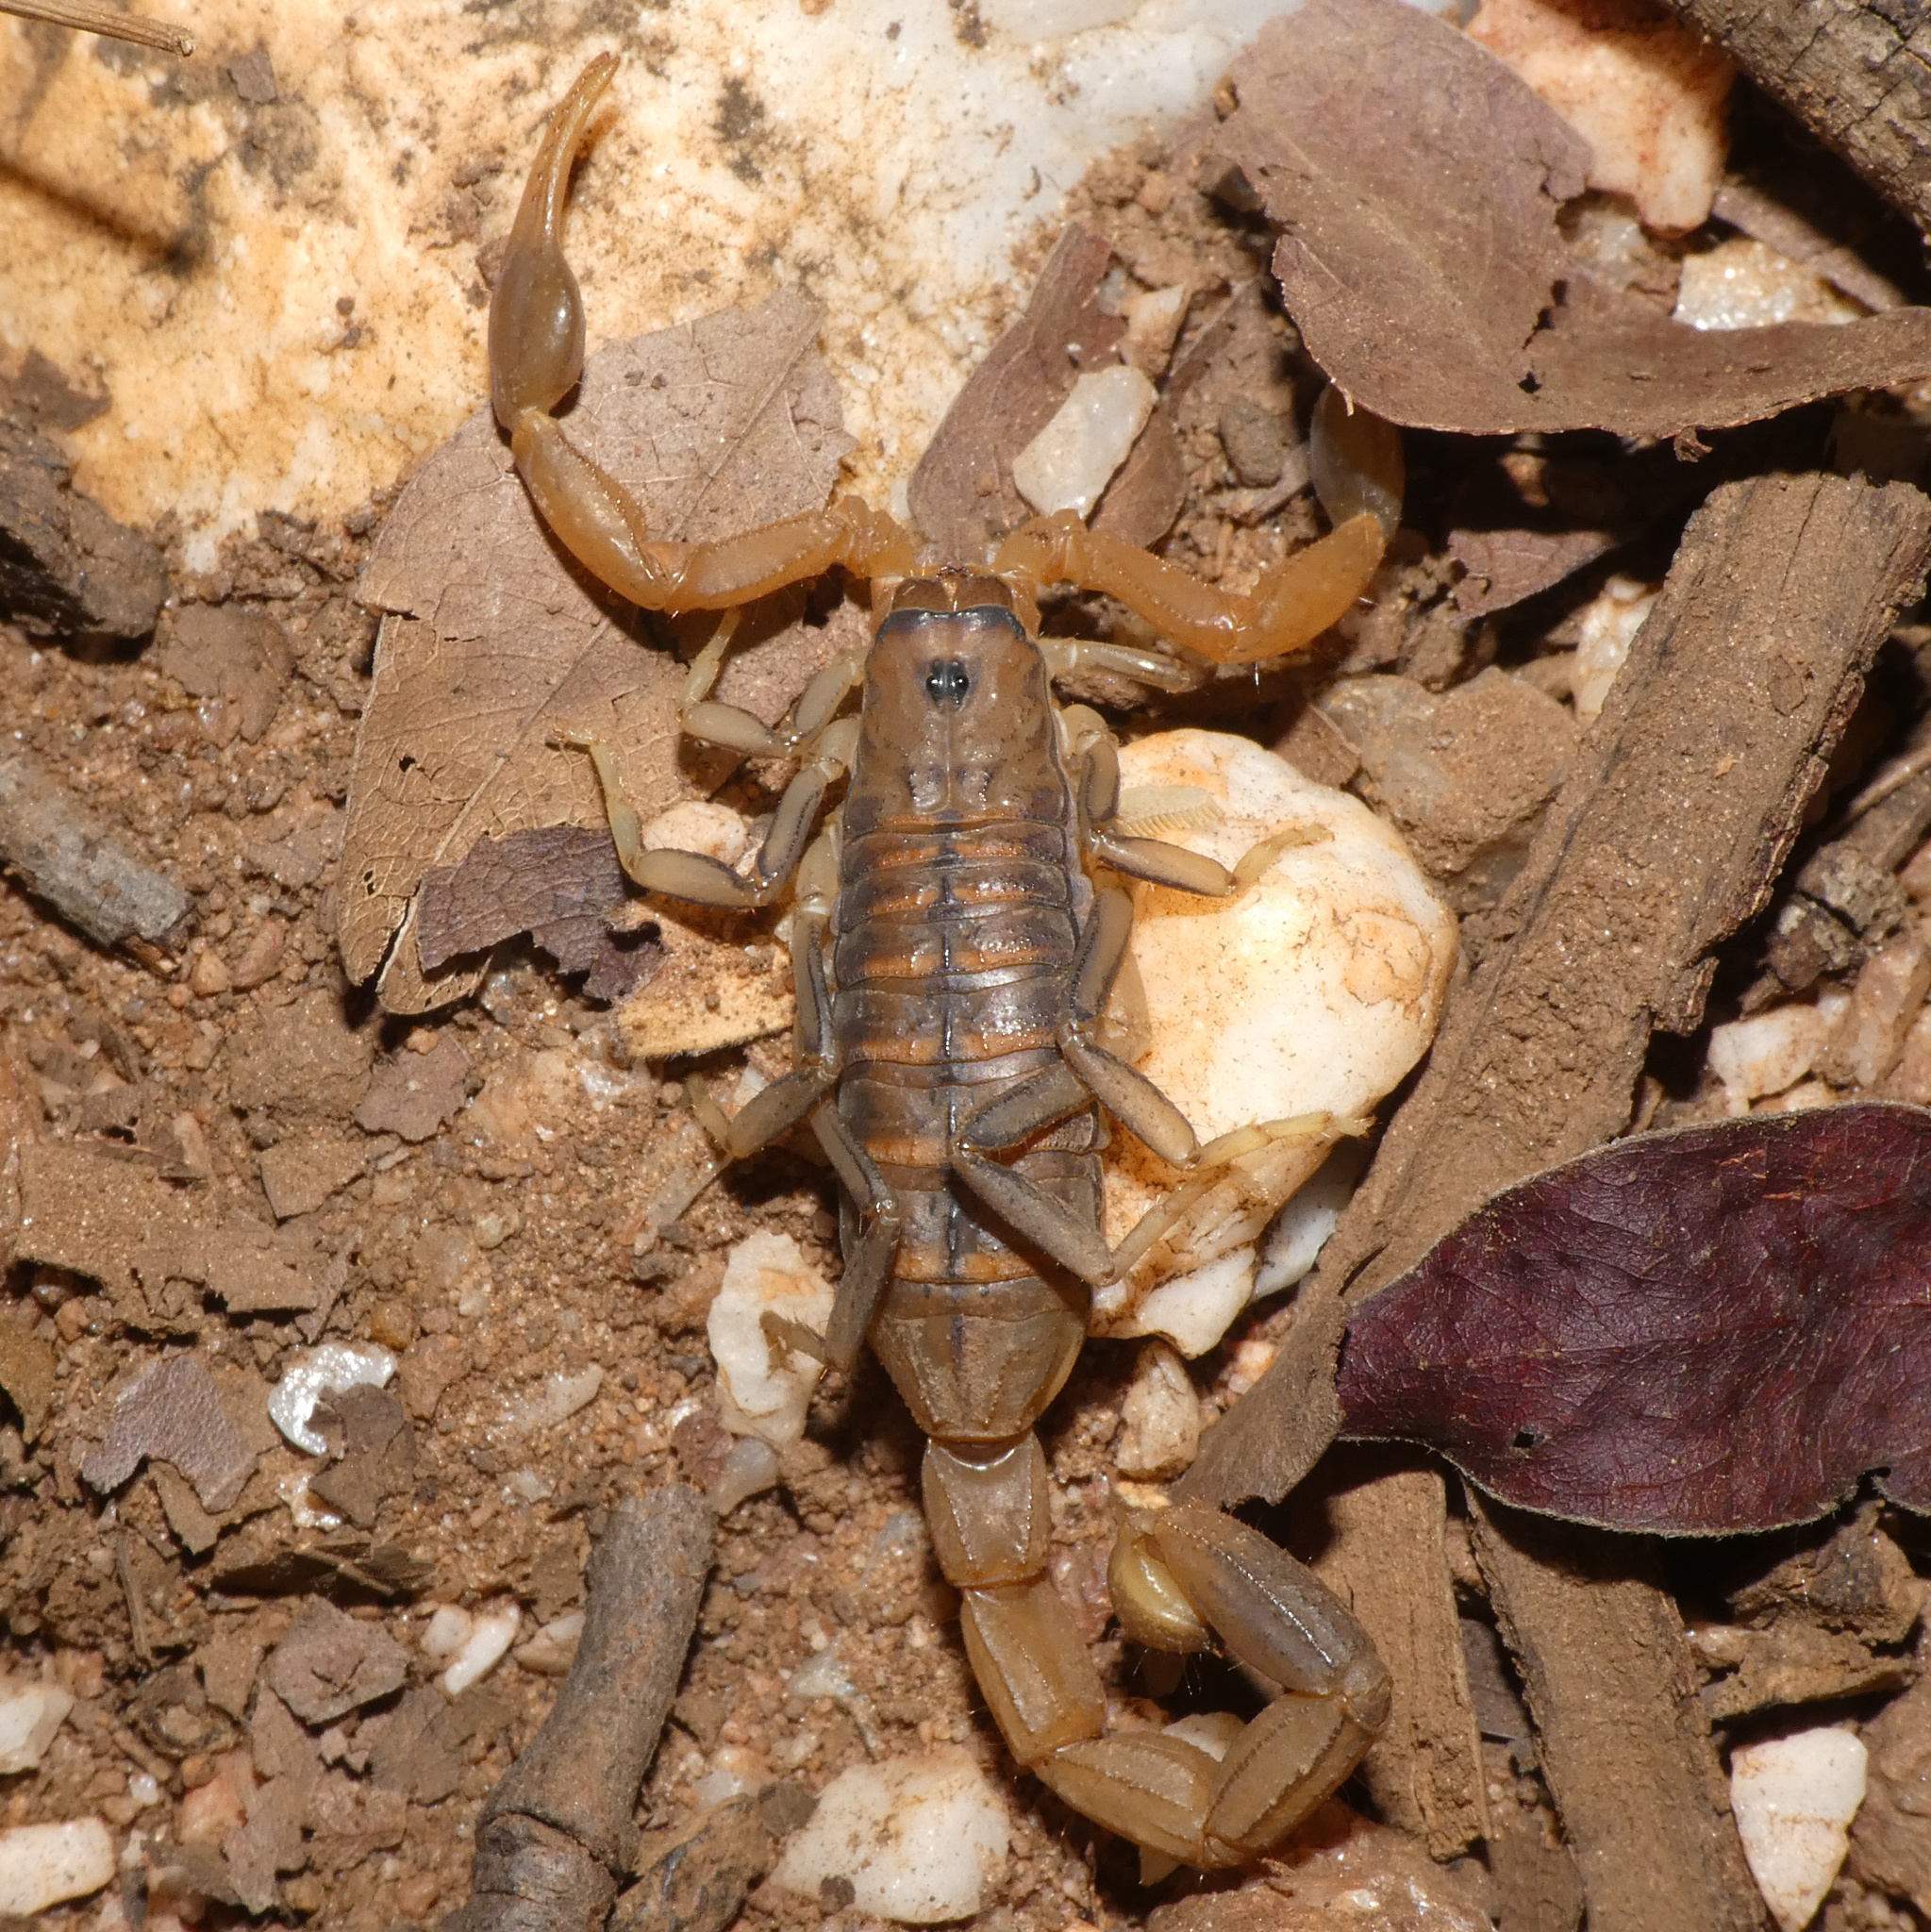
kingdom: Animalia
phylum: Arthropoda
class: Arachnida
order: Scorpiones
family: Buthidae
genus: Uroplectes
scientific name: Uroplectes planimanus
